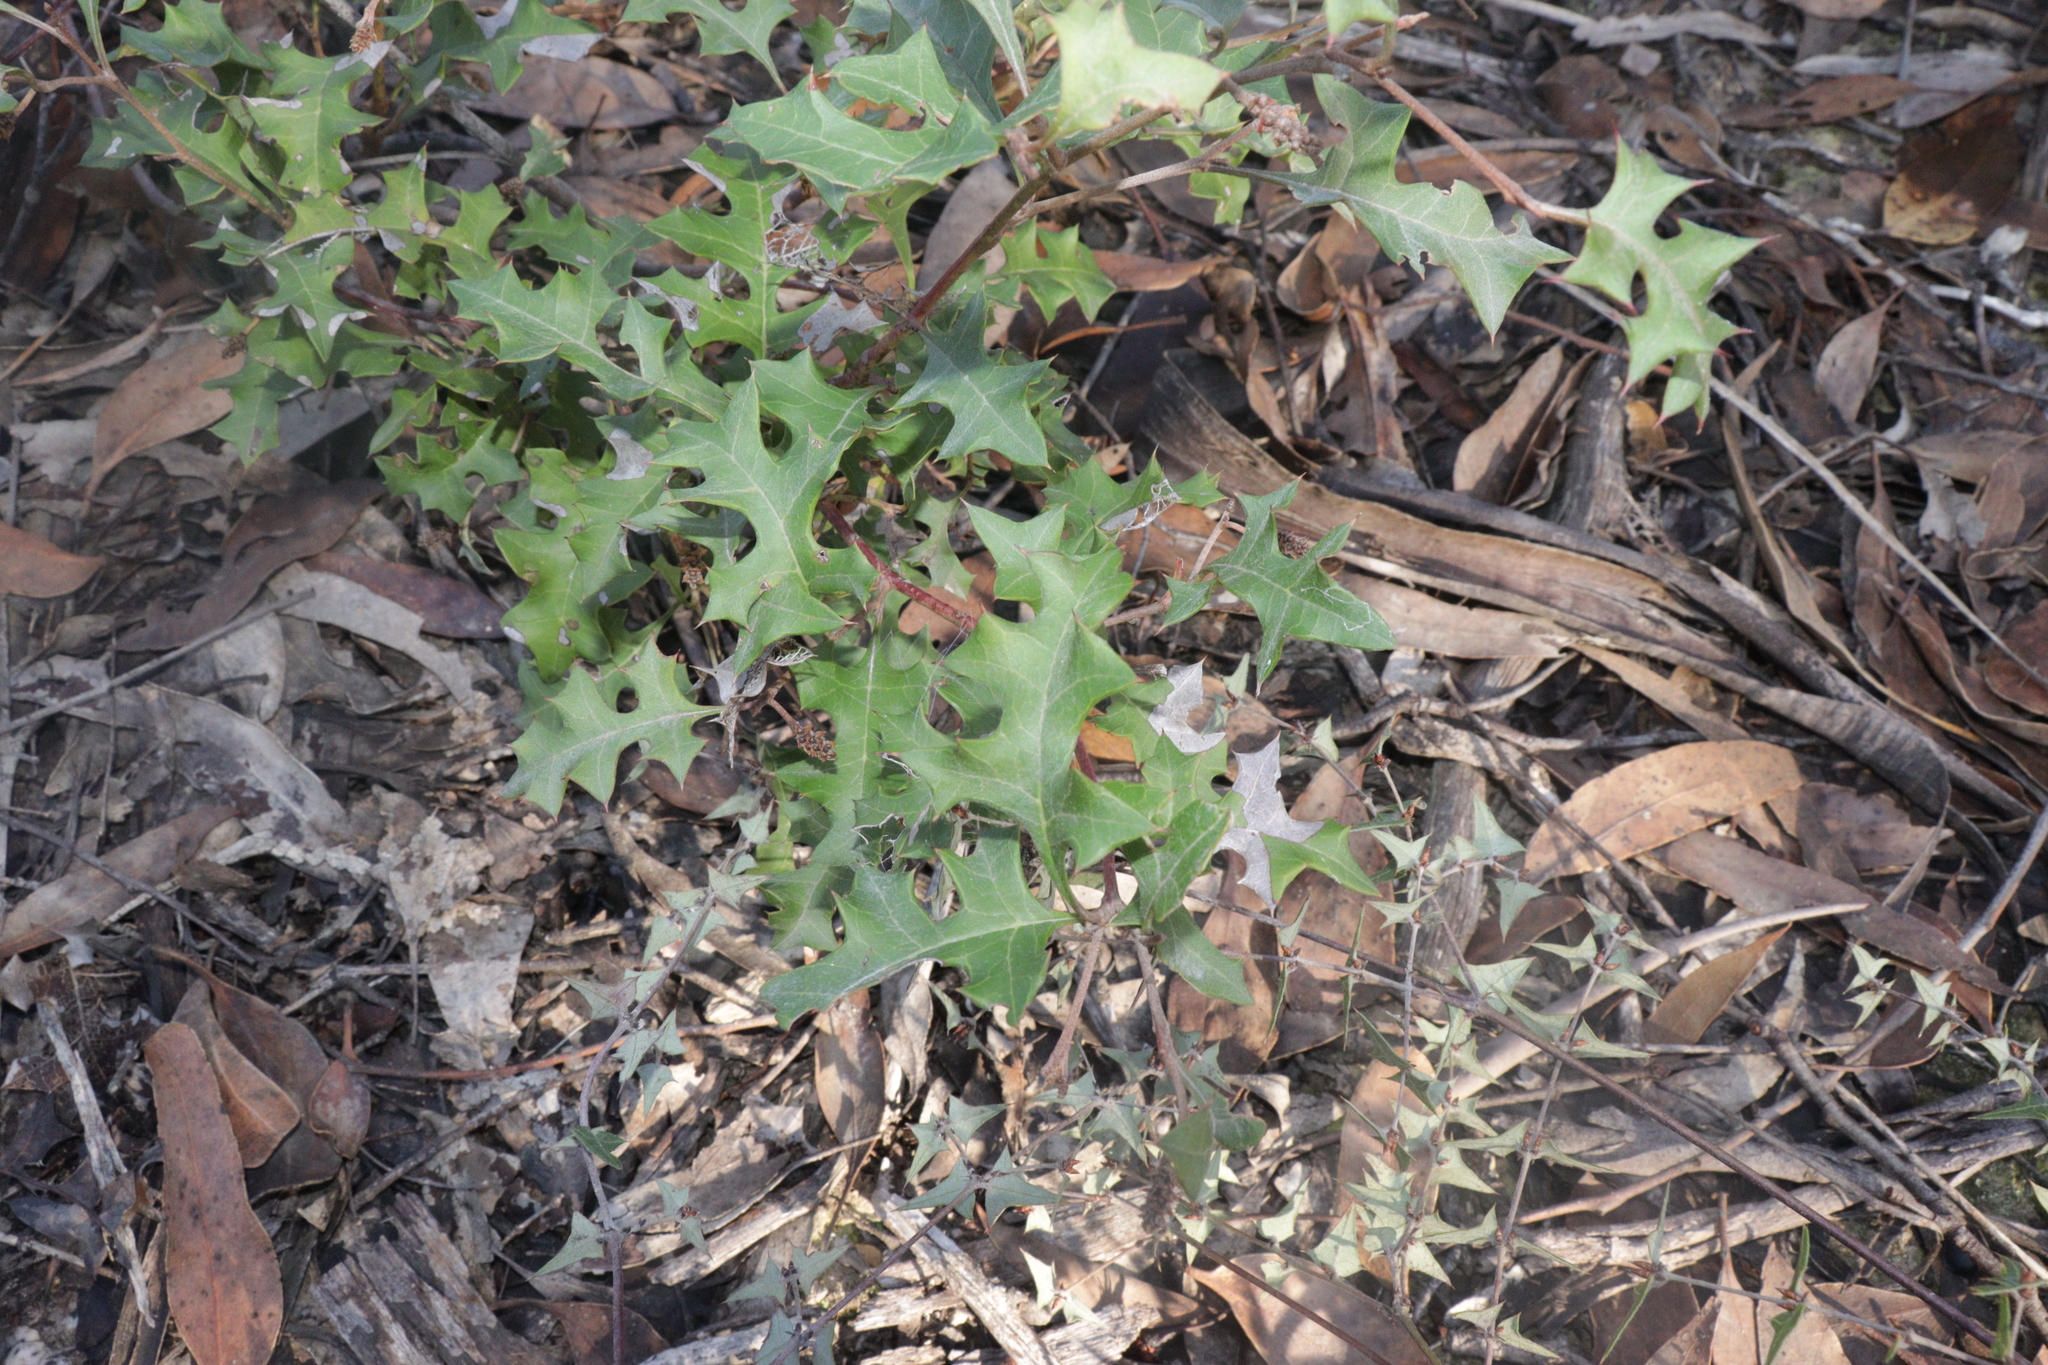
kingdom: Plantae
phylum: Tracheophyta
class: Magnoliopsida
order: Proteales
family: Proteaceae
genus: Grevillea
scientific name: Grevillea steiglitziana
